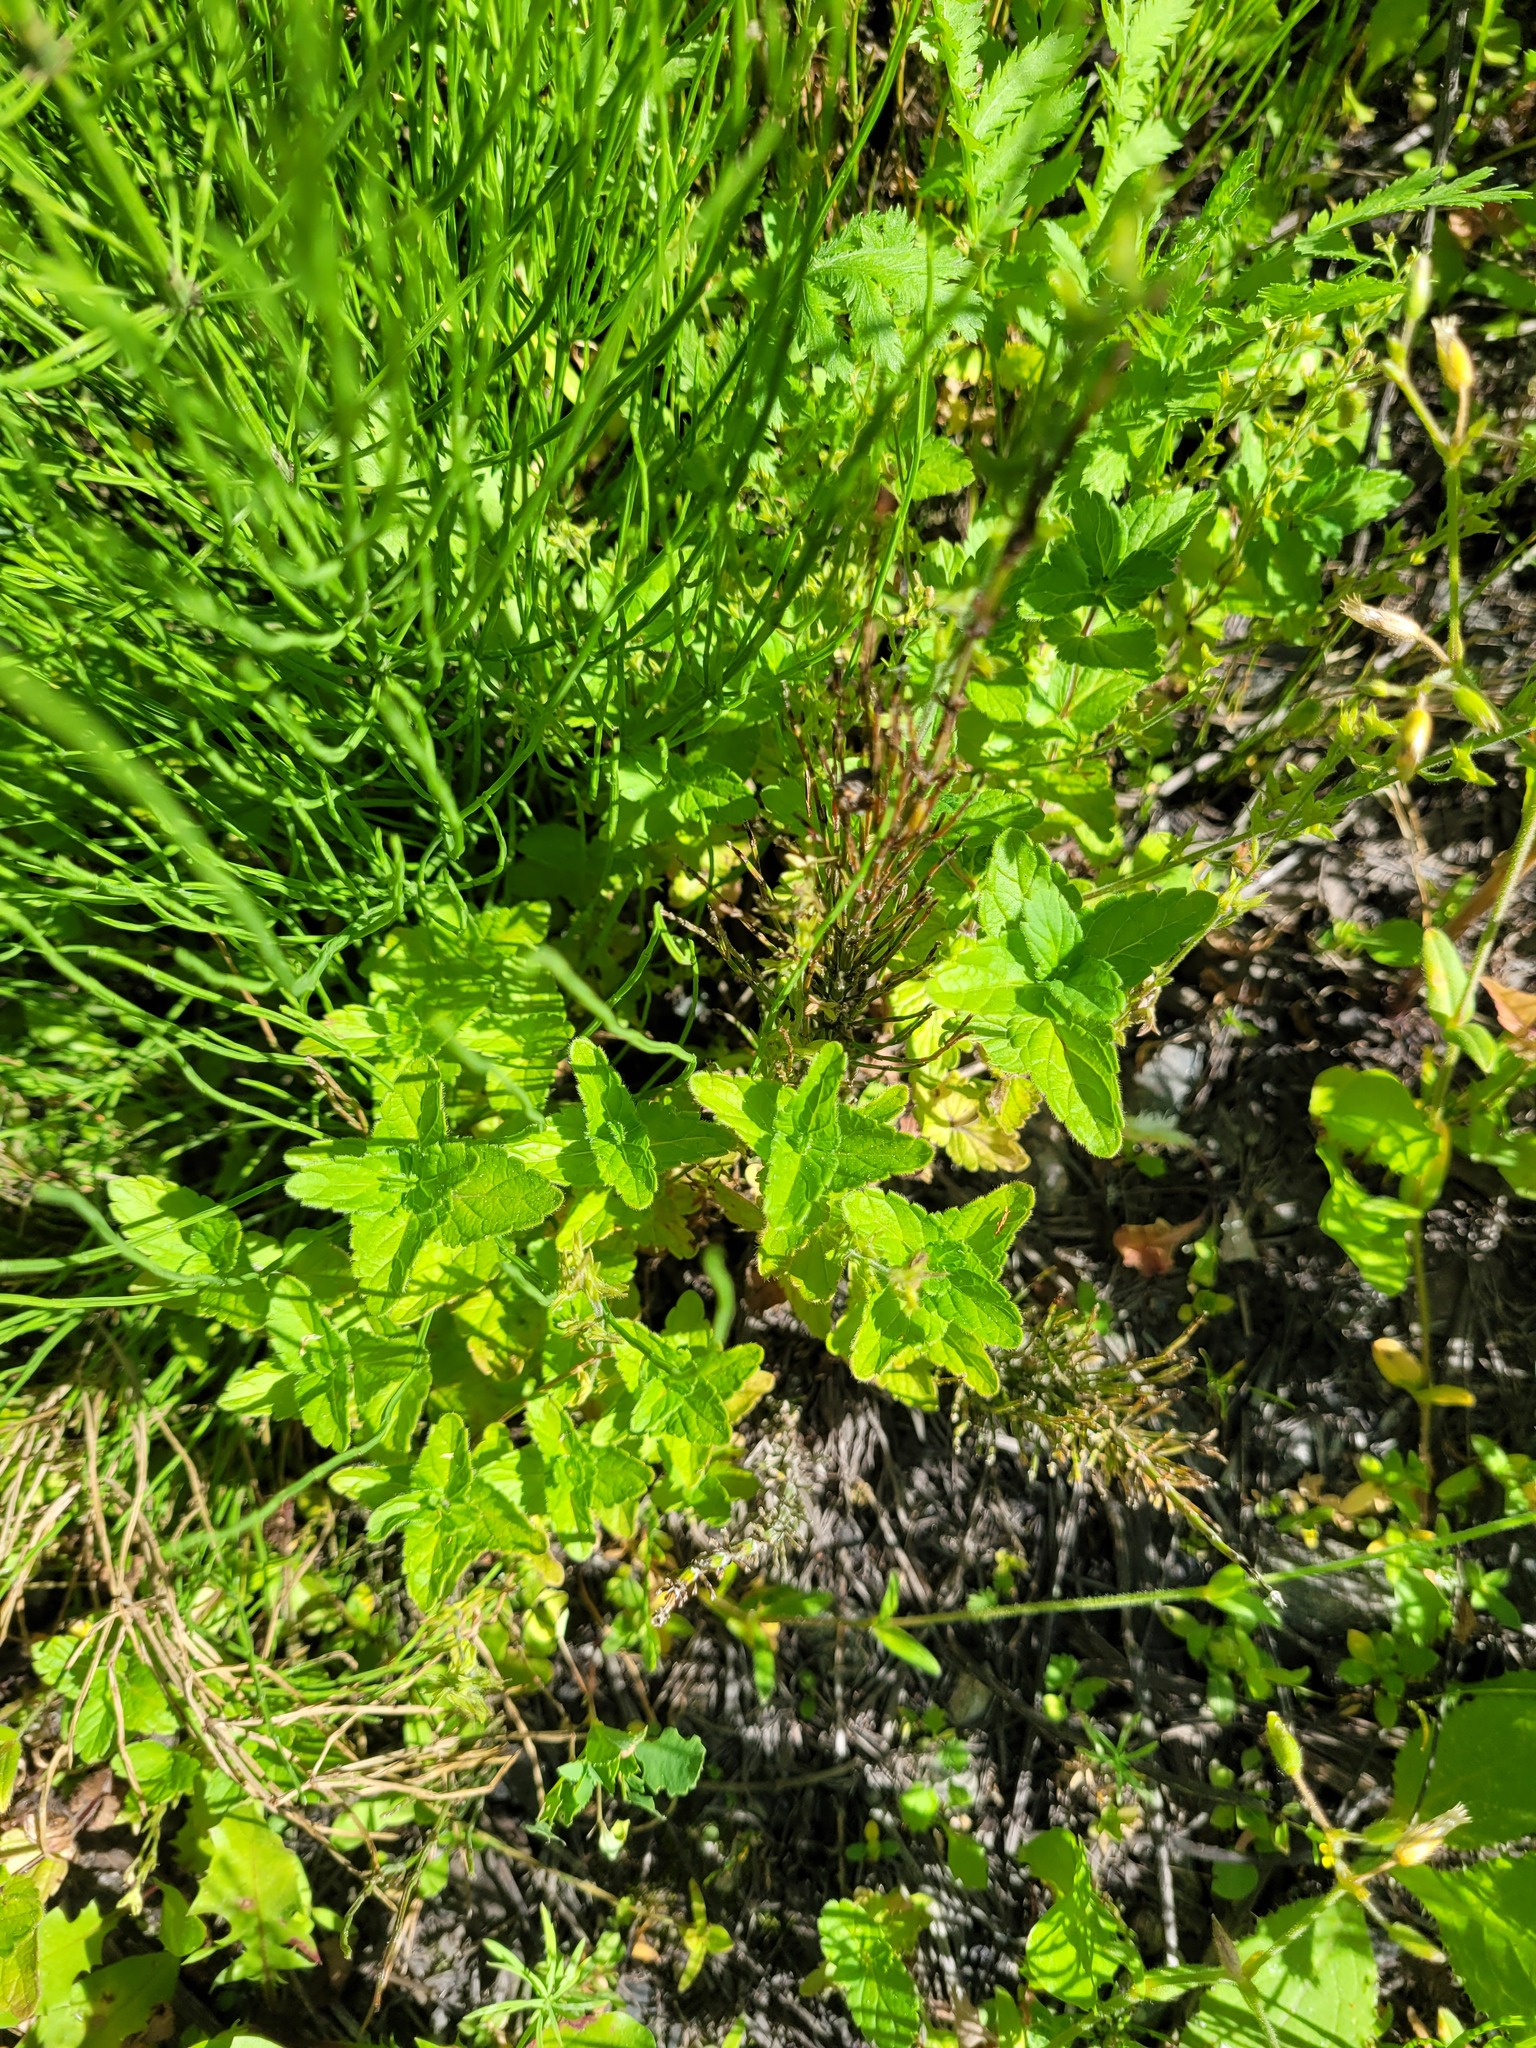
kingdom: Plantae
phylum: Tracheophyta
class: Magnoliopsida
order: Lamiales
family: Plantaginaceae
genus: Veronica
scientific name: Veronica chamaedrys
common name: Germander speedwell
